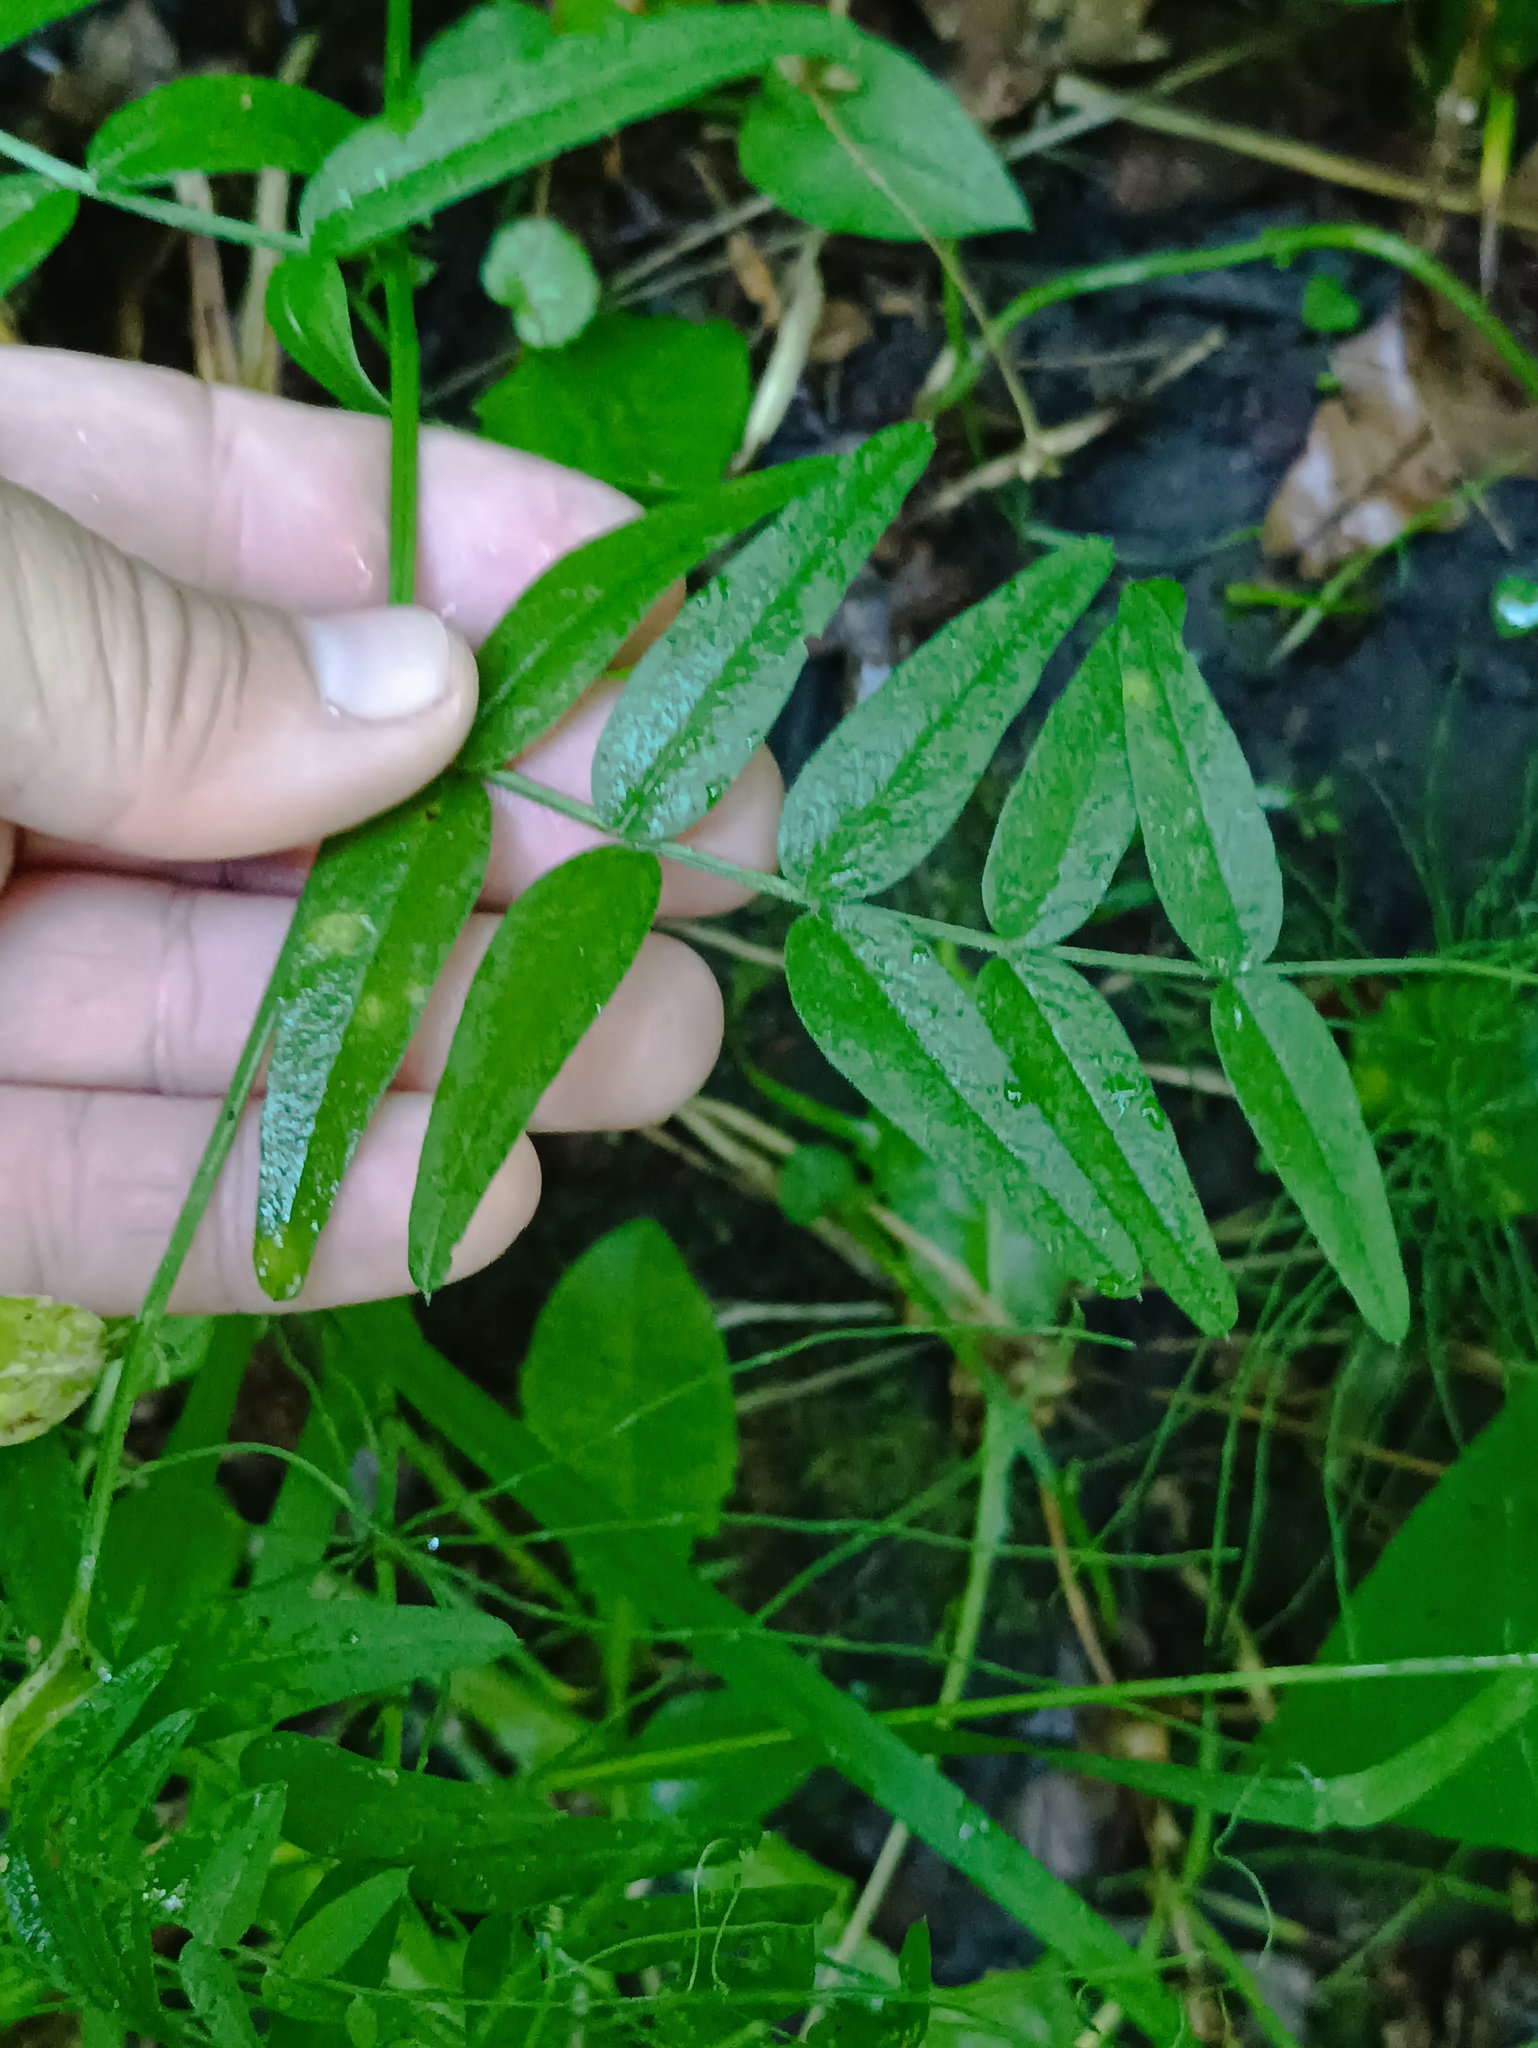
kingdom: Plantae
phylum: Tracheophyta
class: Magnoliopsida
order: Fabales
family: Fabaceae
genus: Vicia
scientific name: Vicia sepium
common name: Bush vetch
